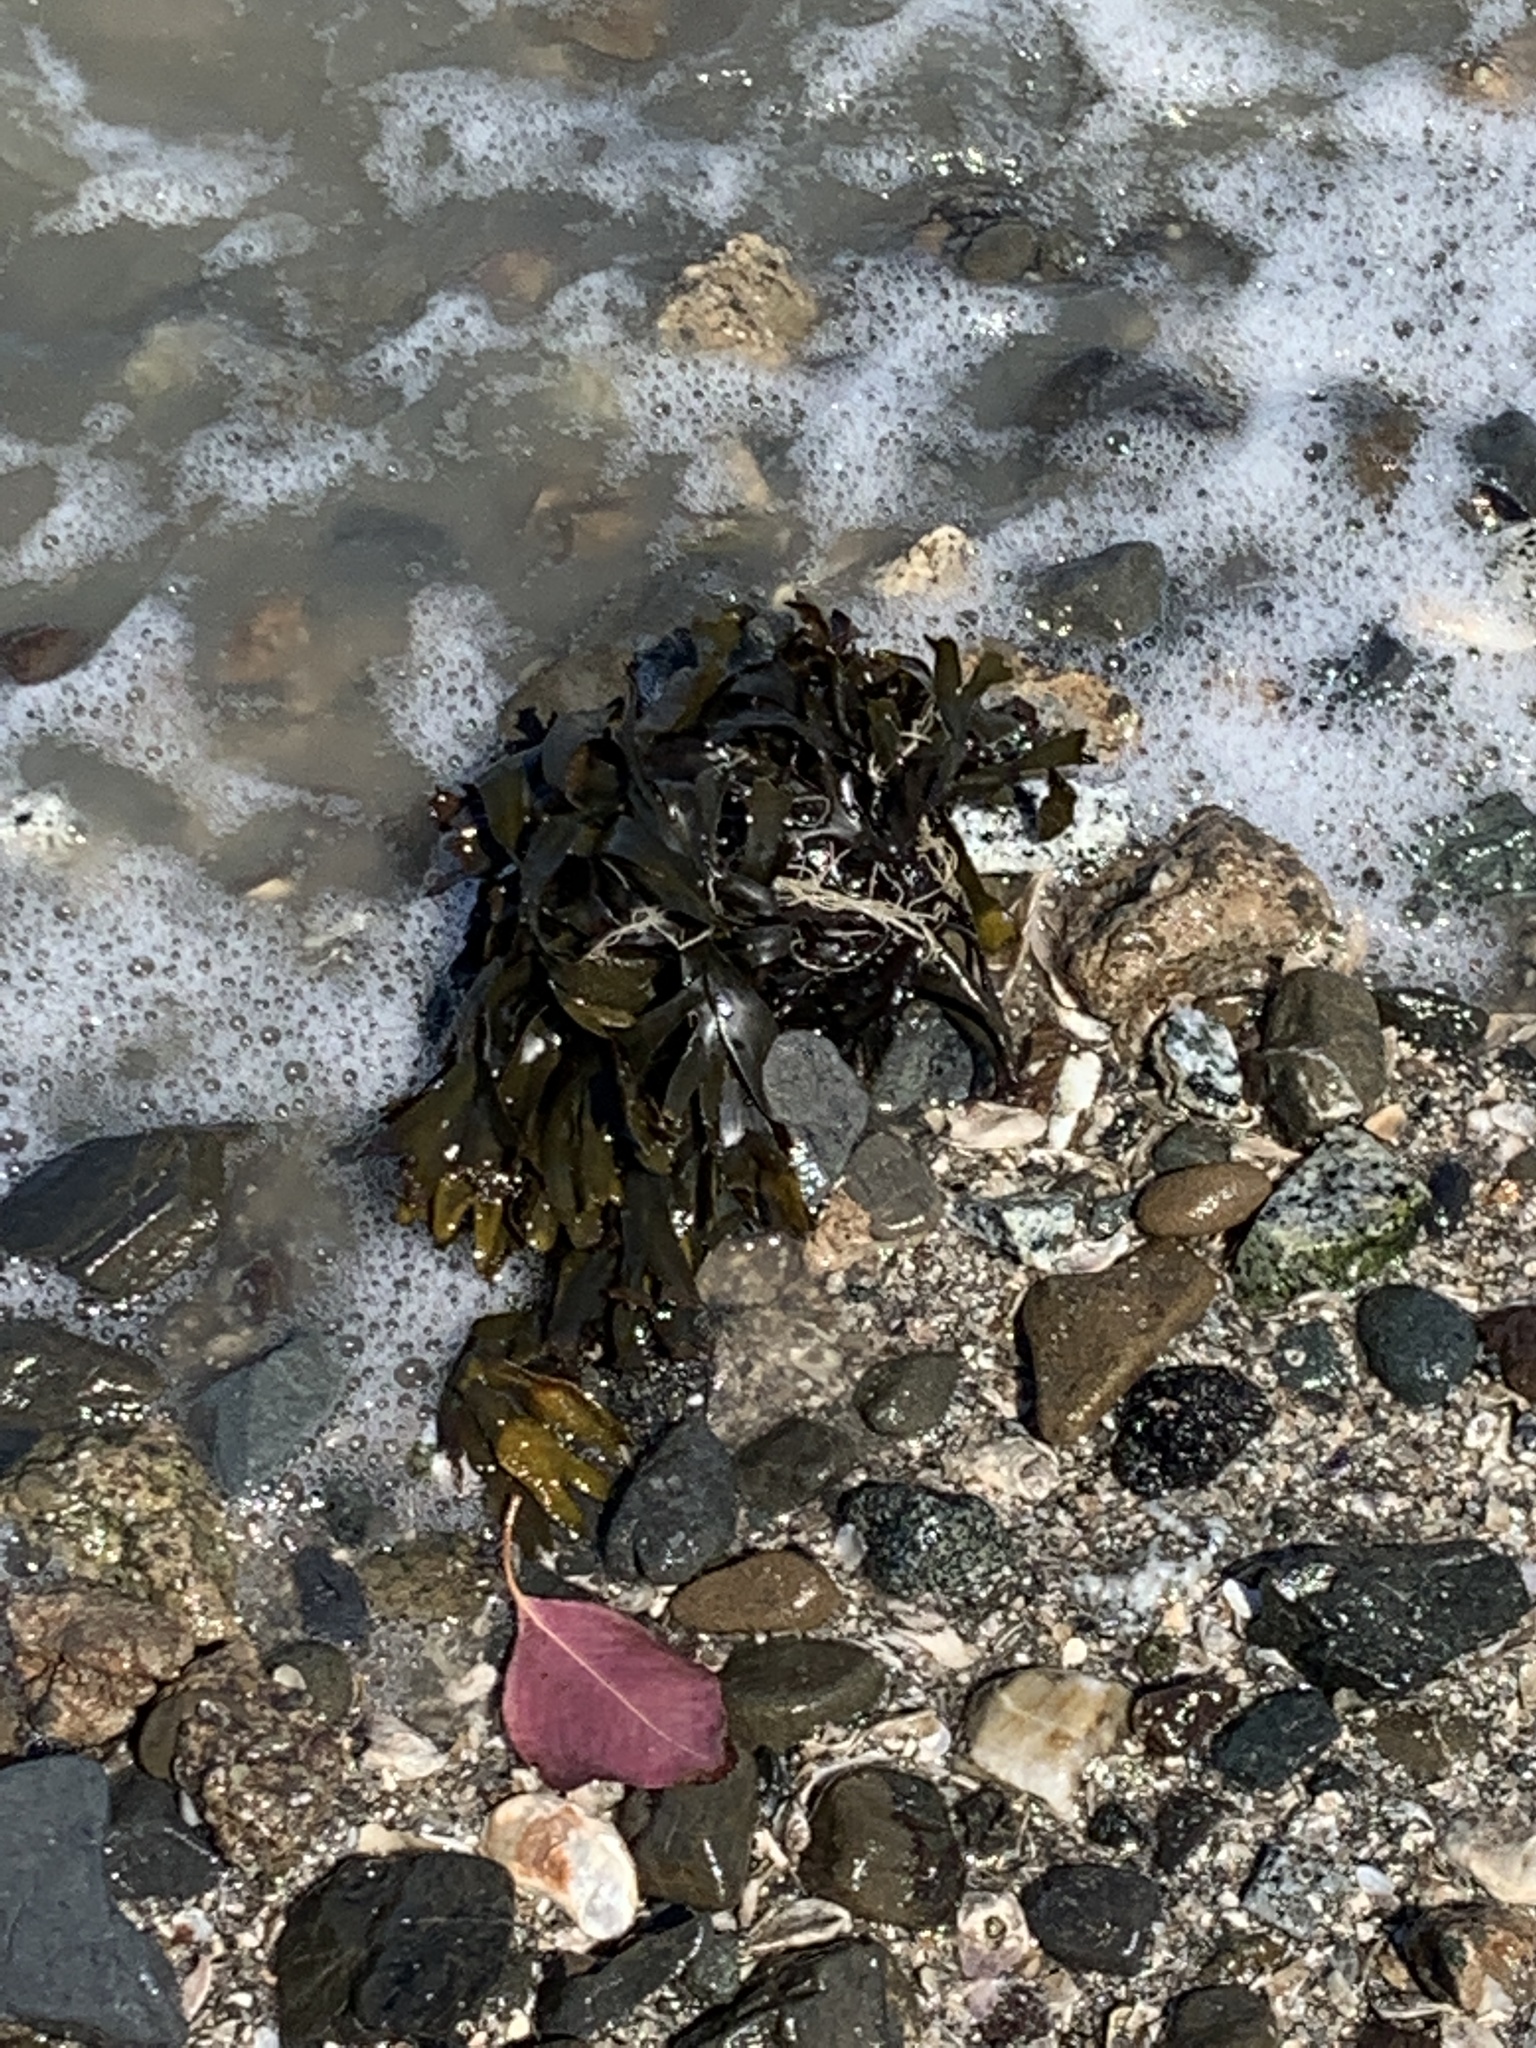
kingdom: Chromista
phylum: Ochrophyta
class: Phaeophyceae
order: Fucales
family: Fucaceae
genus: Fucus
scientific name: Fucus distichus
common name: Rockweed
